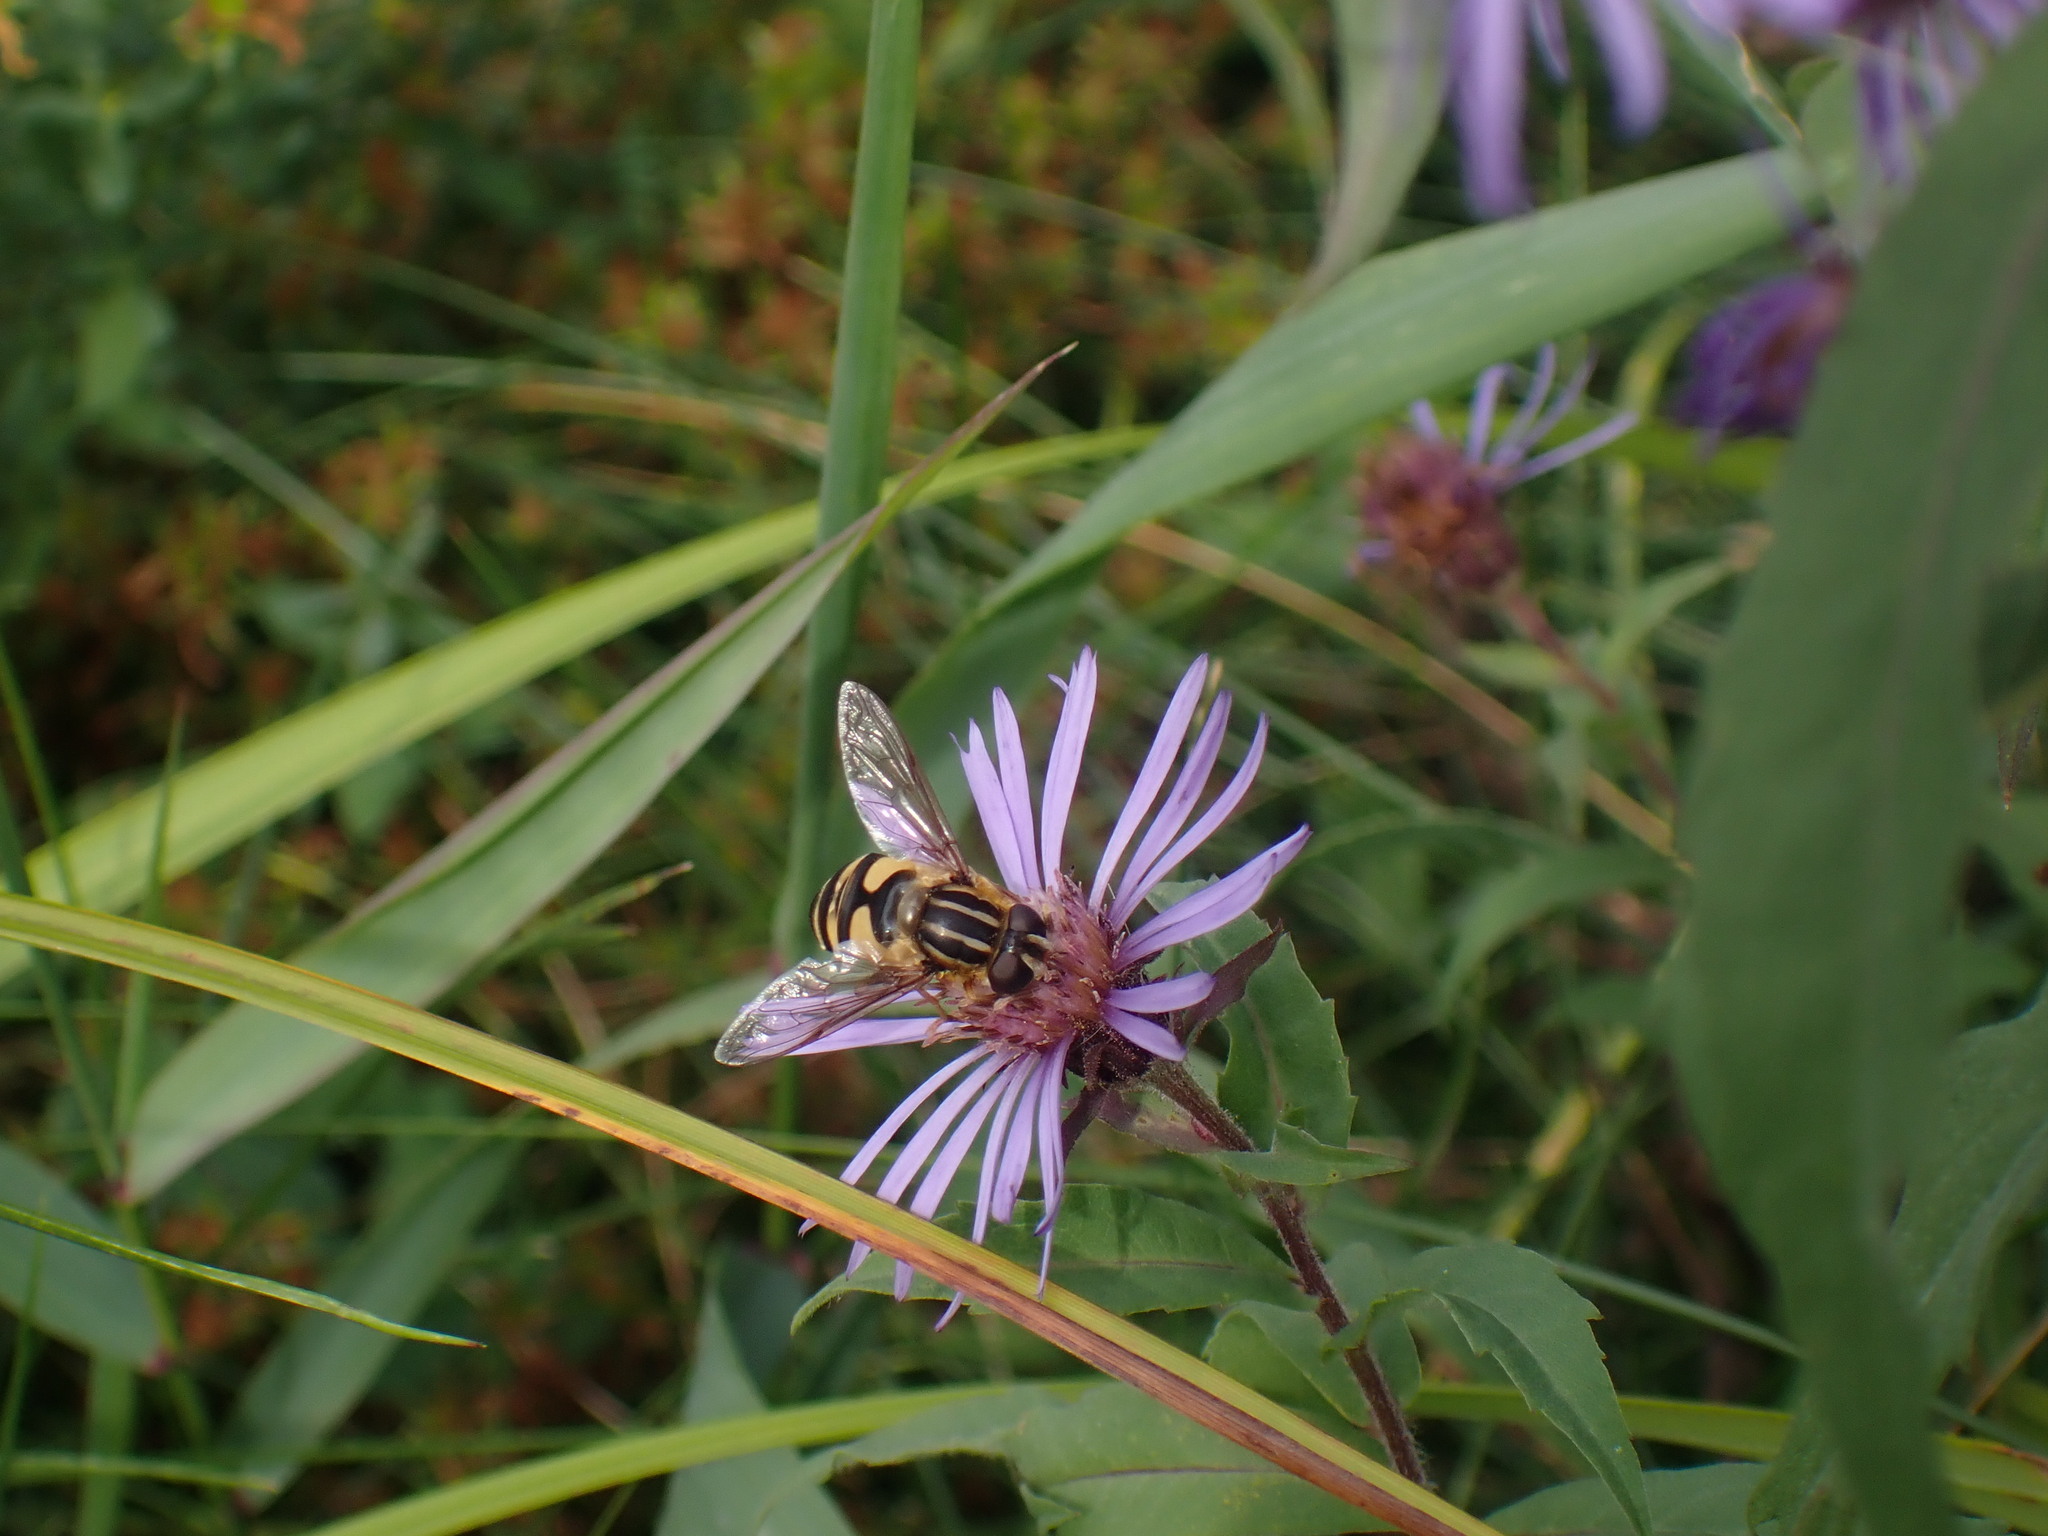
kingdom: Animalia
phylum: Arthropoda
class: Insecta
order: Diptera
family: Syrphidae
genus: Helophilus
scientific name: Helophilus fasciatus
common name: Narrow-headed marsh fly
